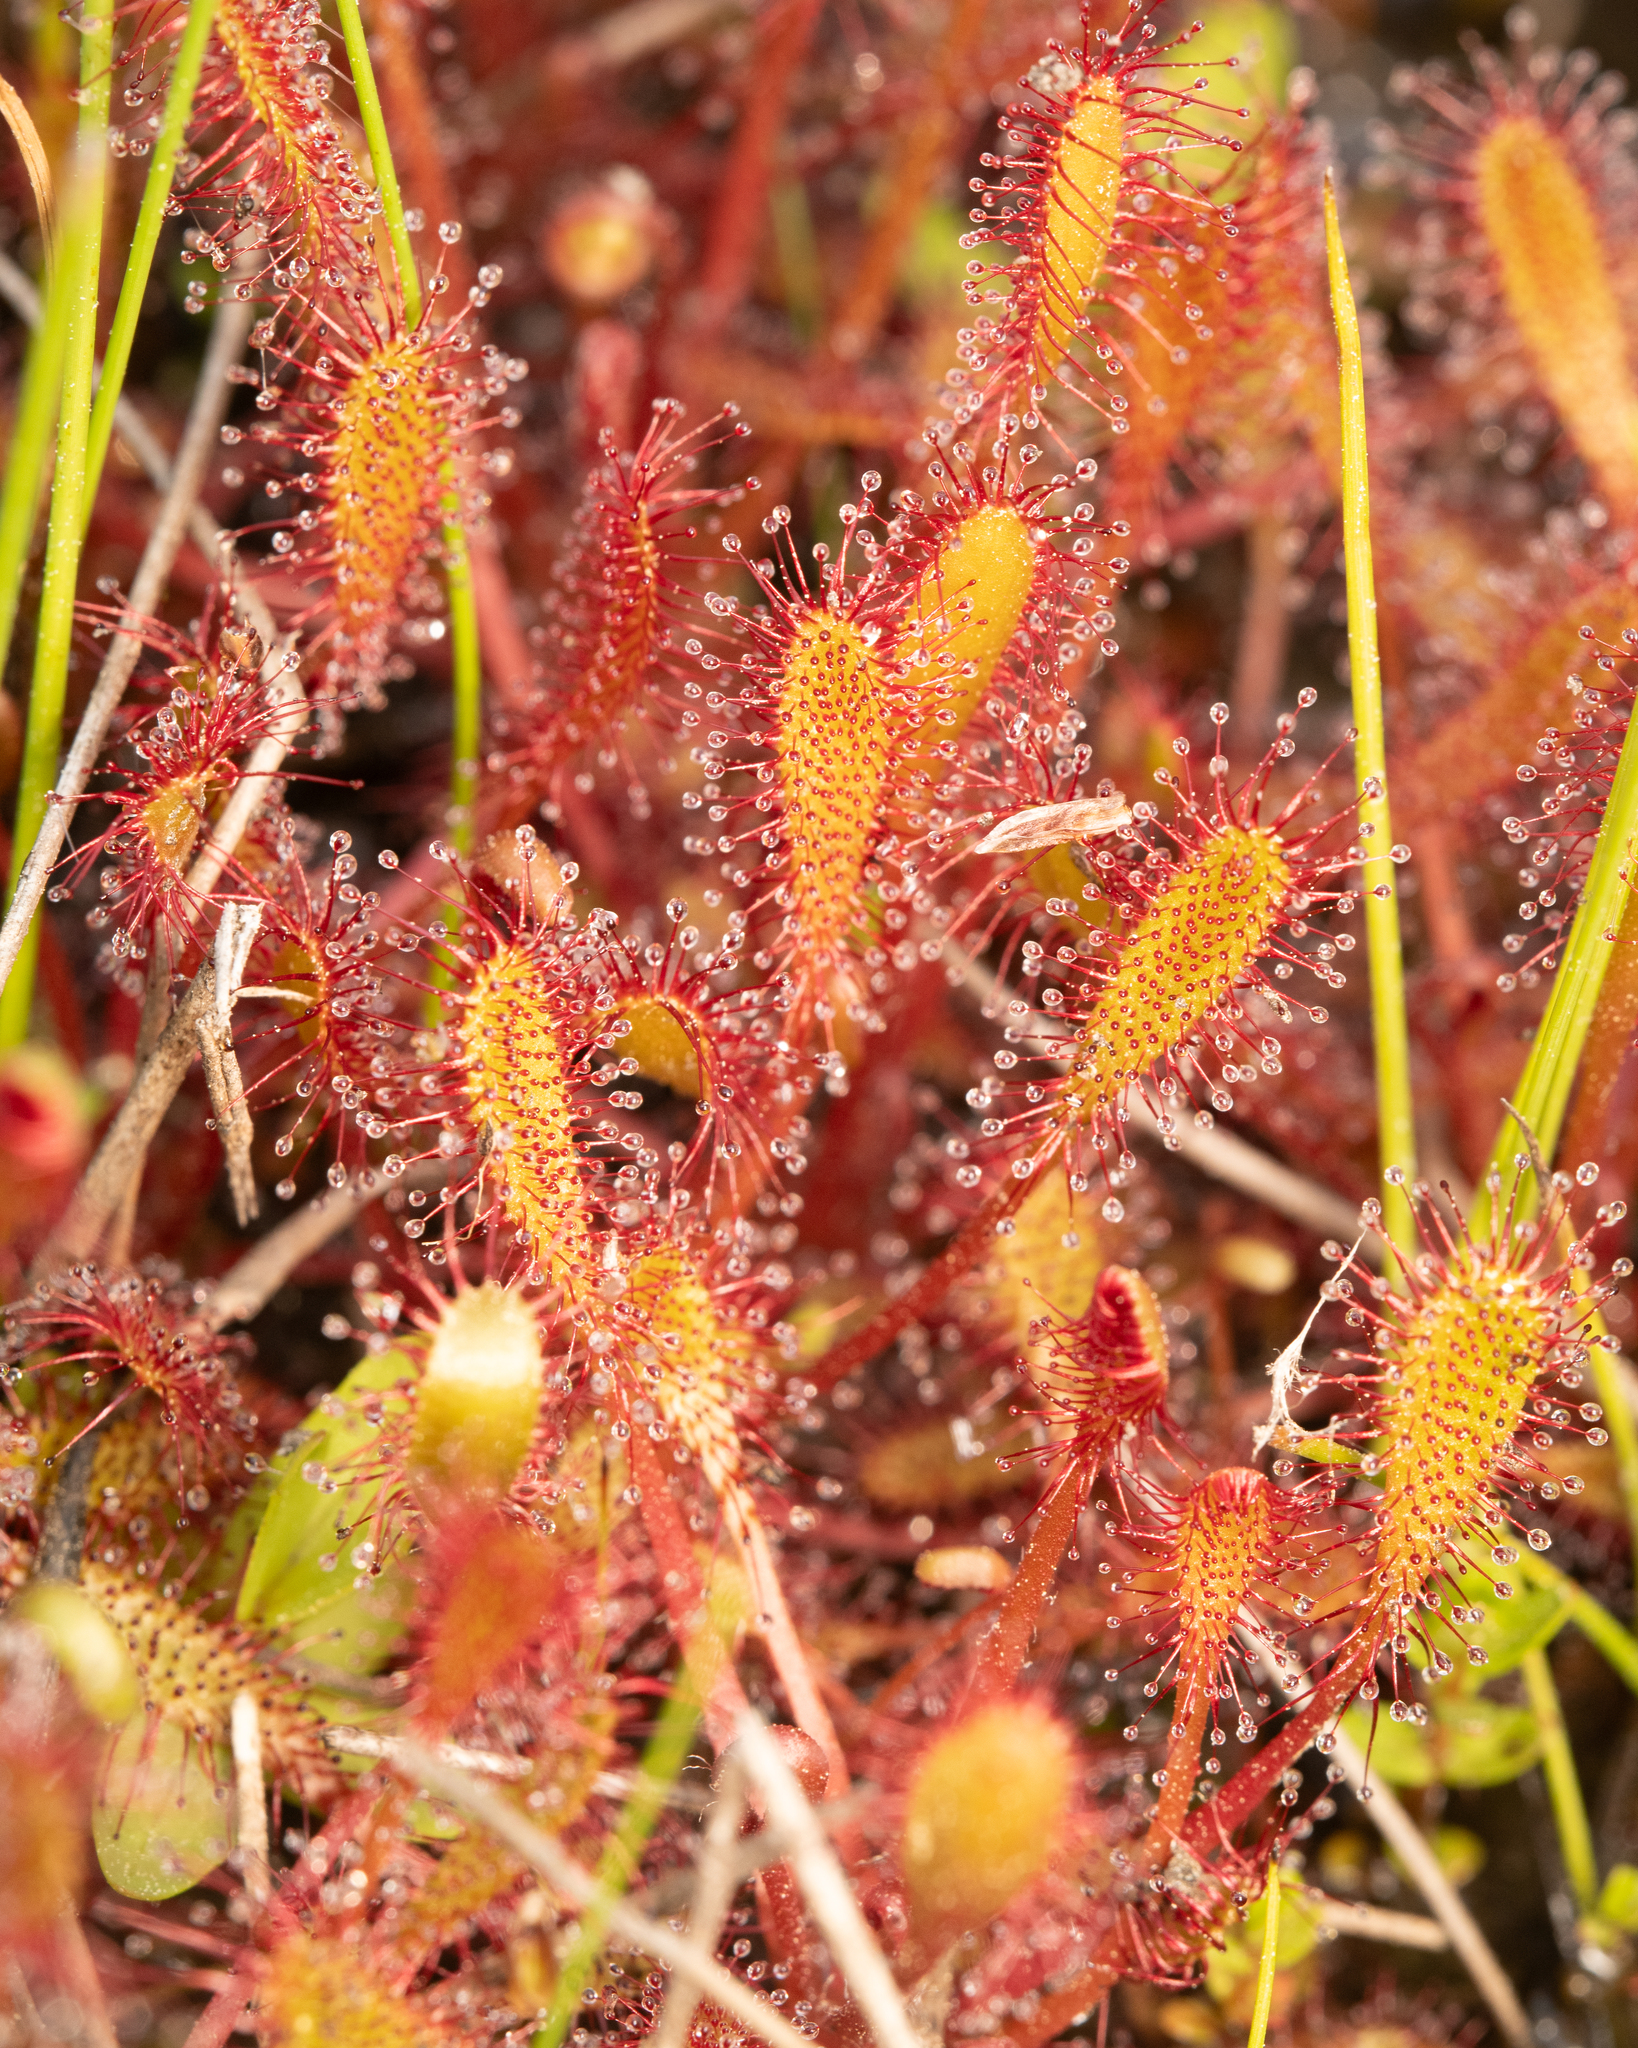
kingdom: Plantae
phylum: Tracheophyta
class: Magnoliopsida
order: Caryophyllales
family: Droseraceae
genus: Drosera
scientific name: Drosera anglica
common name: Great sundew
